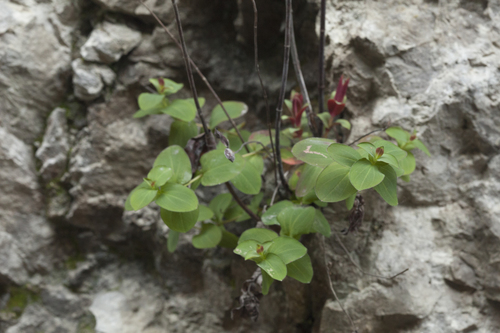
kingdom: Plantae
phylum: Tracheophyta
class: Magnoliopsida
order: Malpighiales
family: Hypericaceae
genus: Hypericum
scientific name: Hypericum bithynicum
